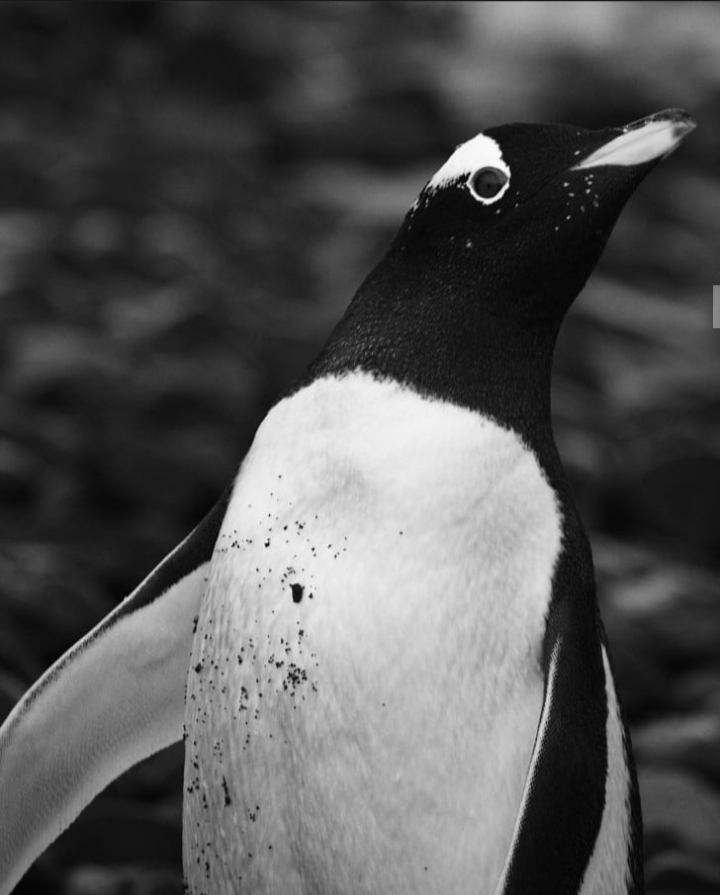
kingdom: Animalia
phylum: Chordata
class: Aves
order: Sphenisciformes
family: Spheniscidae
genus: Pygoscelis
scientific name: Pygoscelis papua
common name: Gentoo penguin
